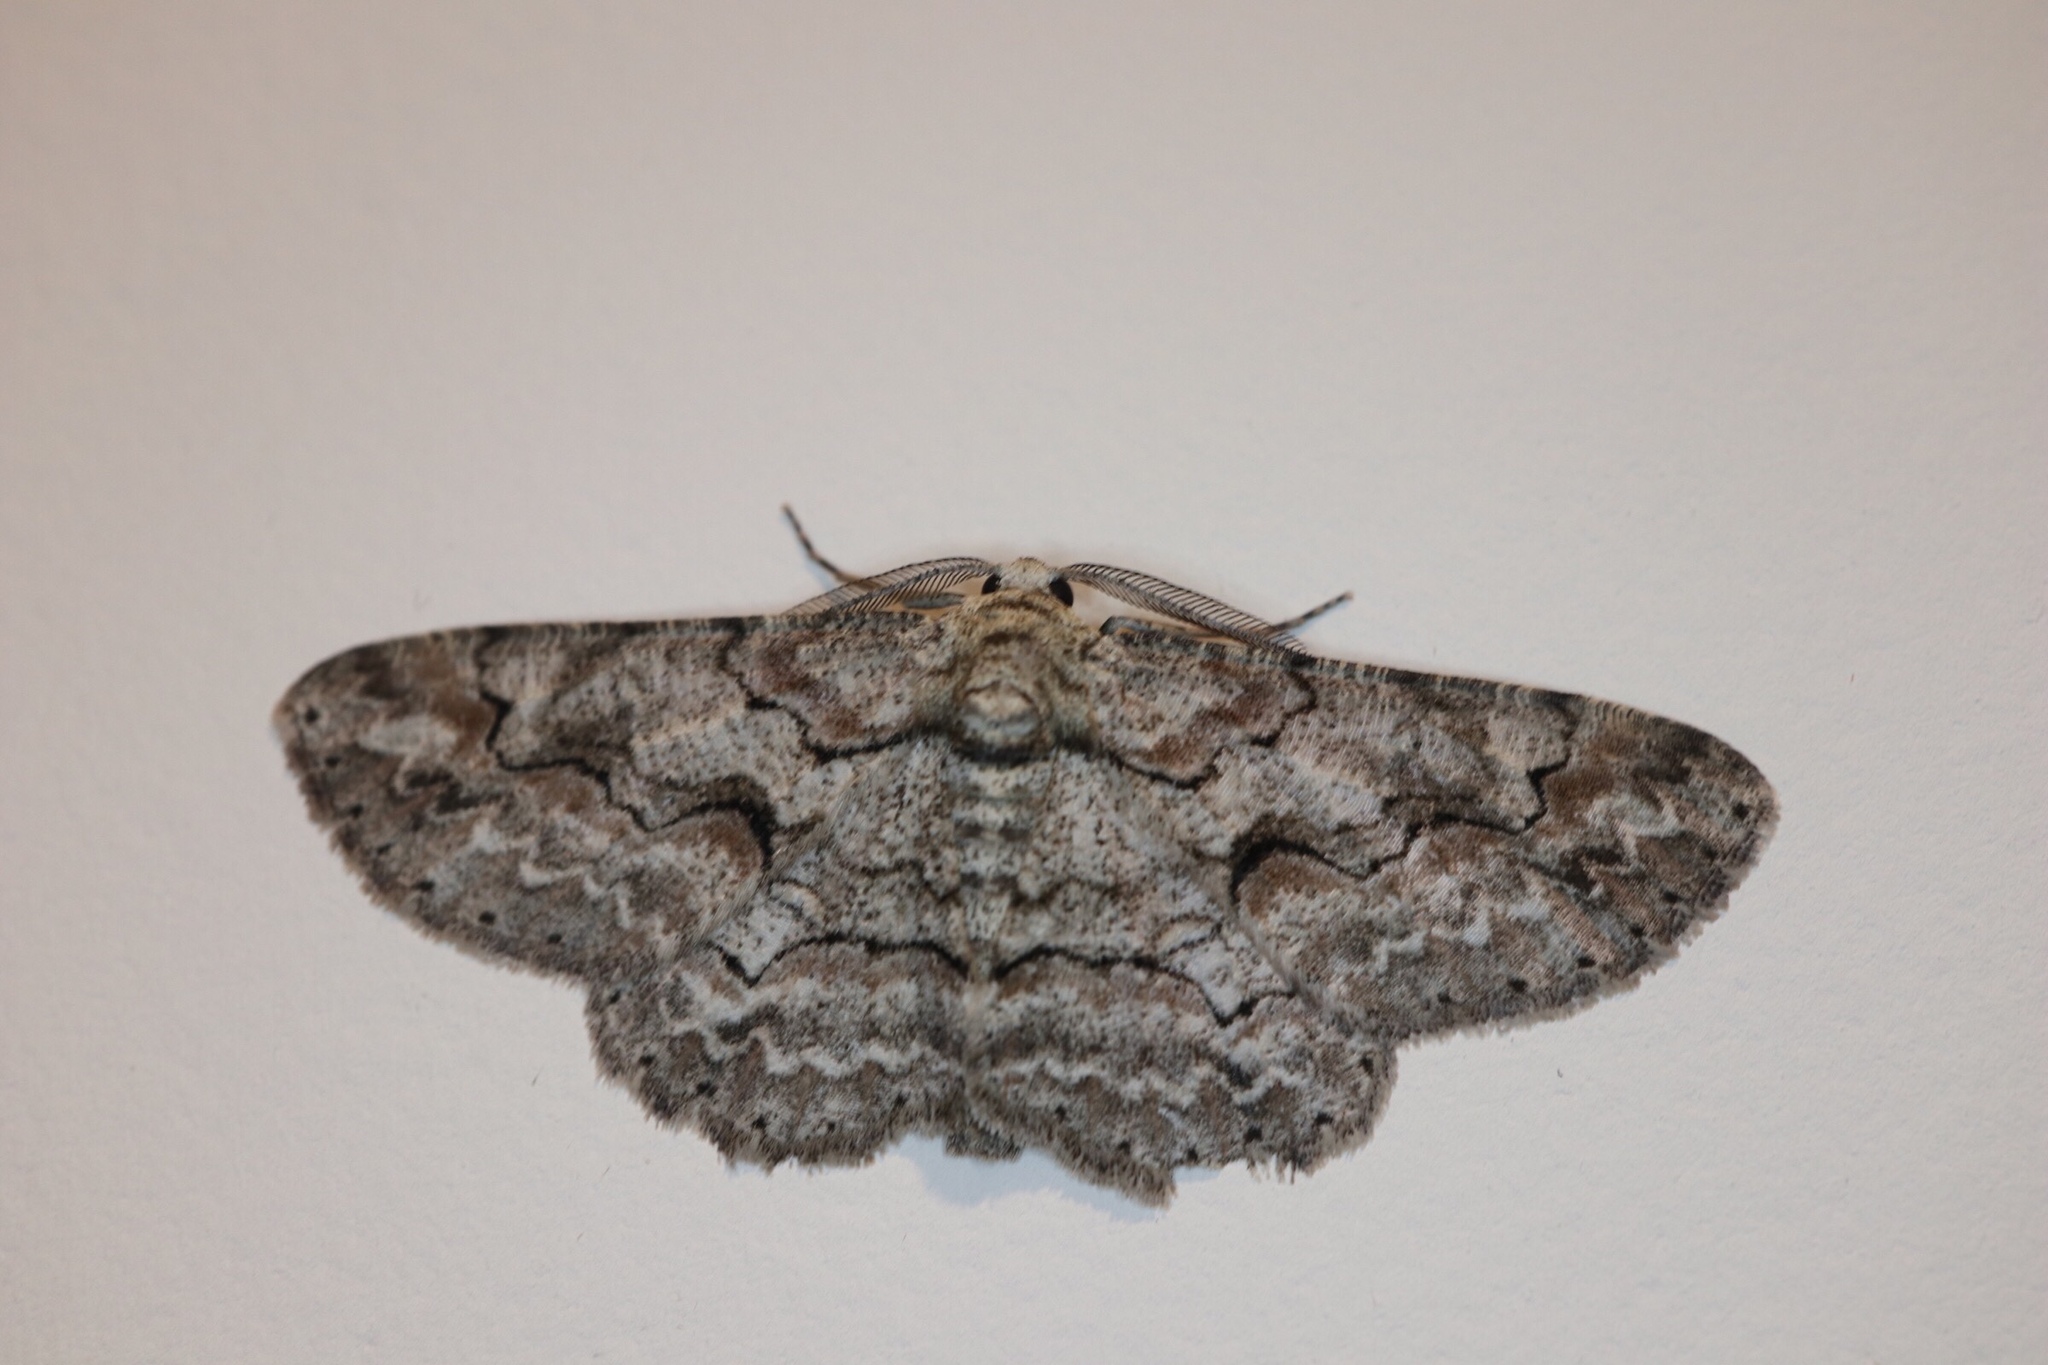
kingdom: Animalia
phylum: Arthropoda
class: Insecta
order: Lepidoptera
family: Geometridae
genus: Iridopsis
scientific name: Iridopsis defectaria
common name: Brown-shaded gray
